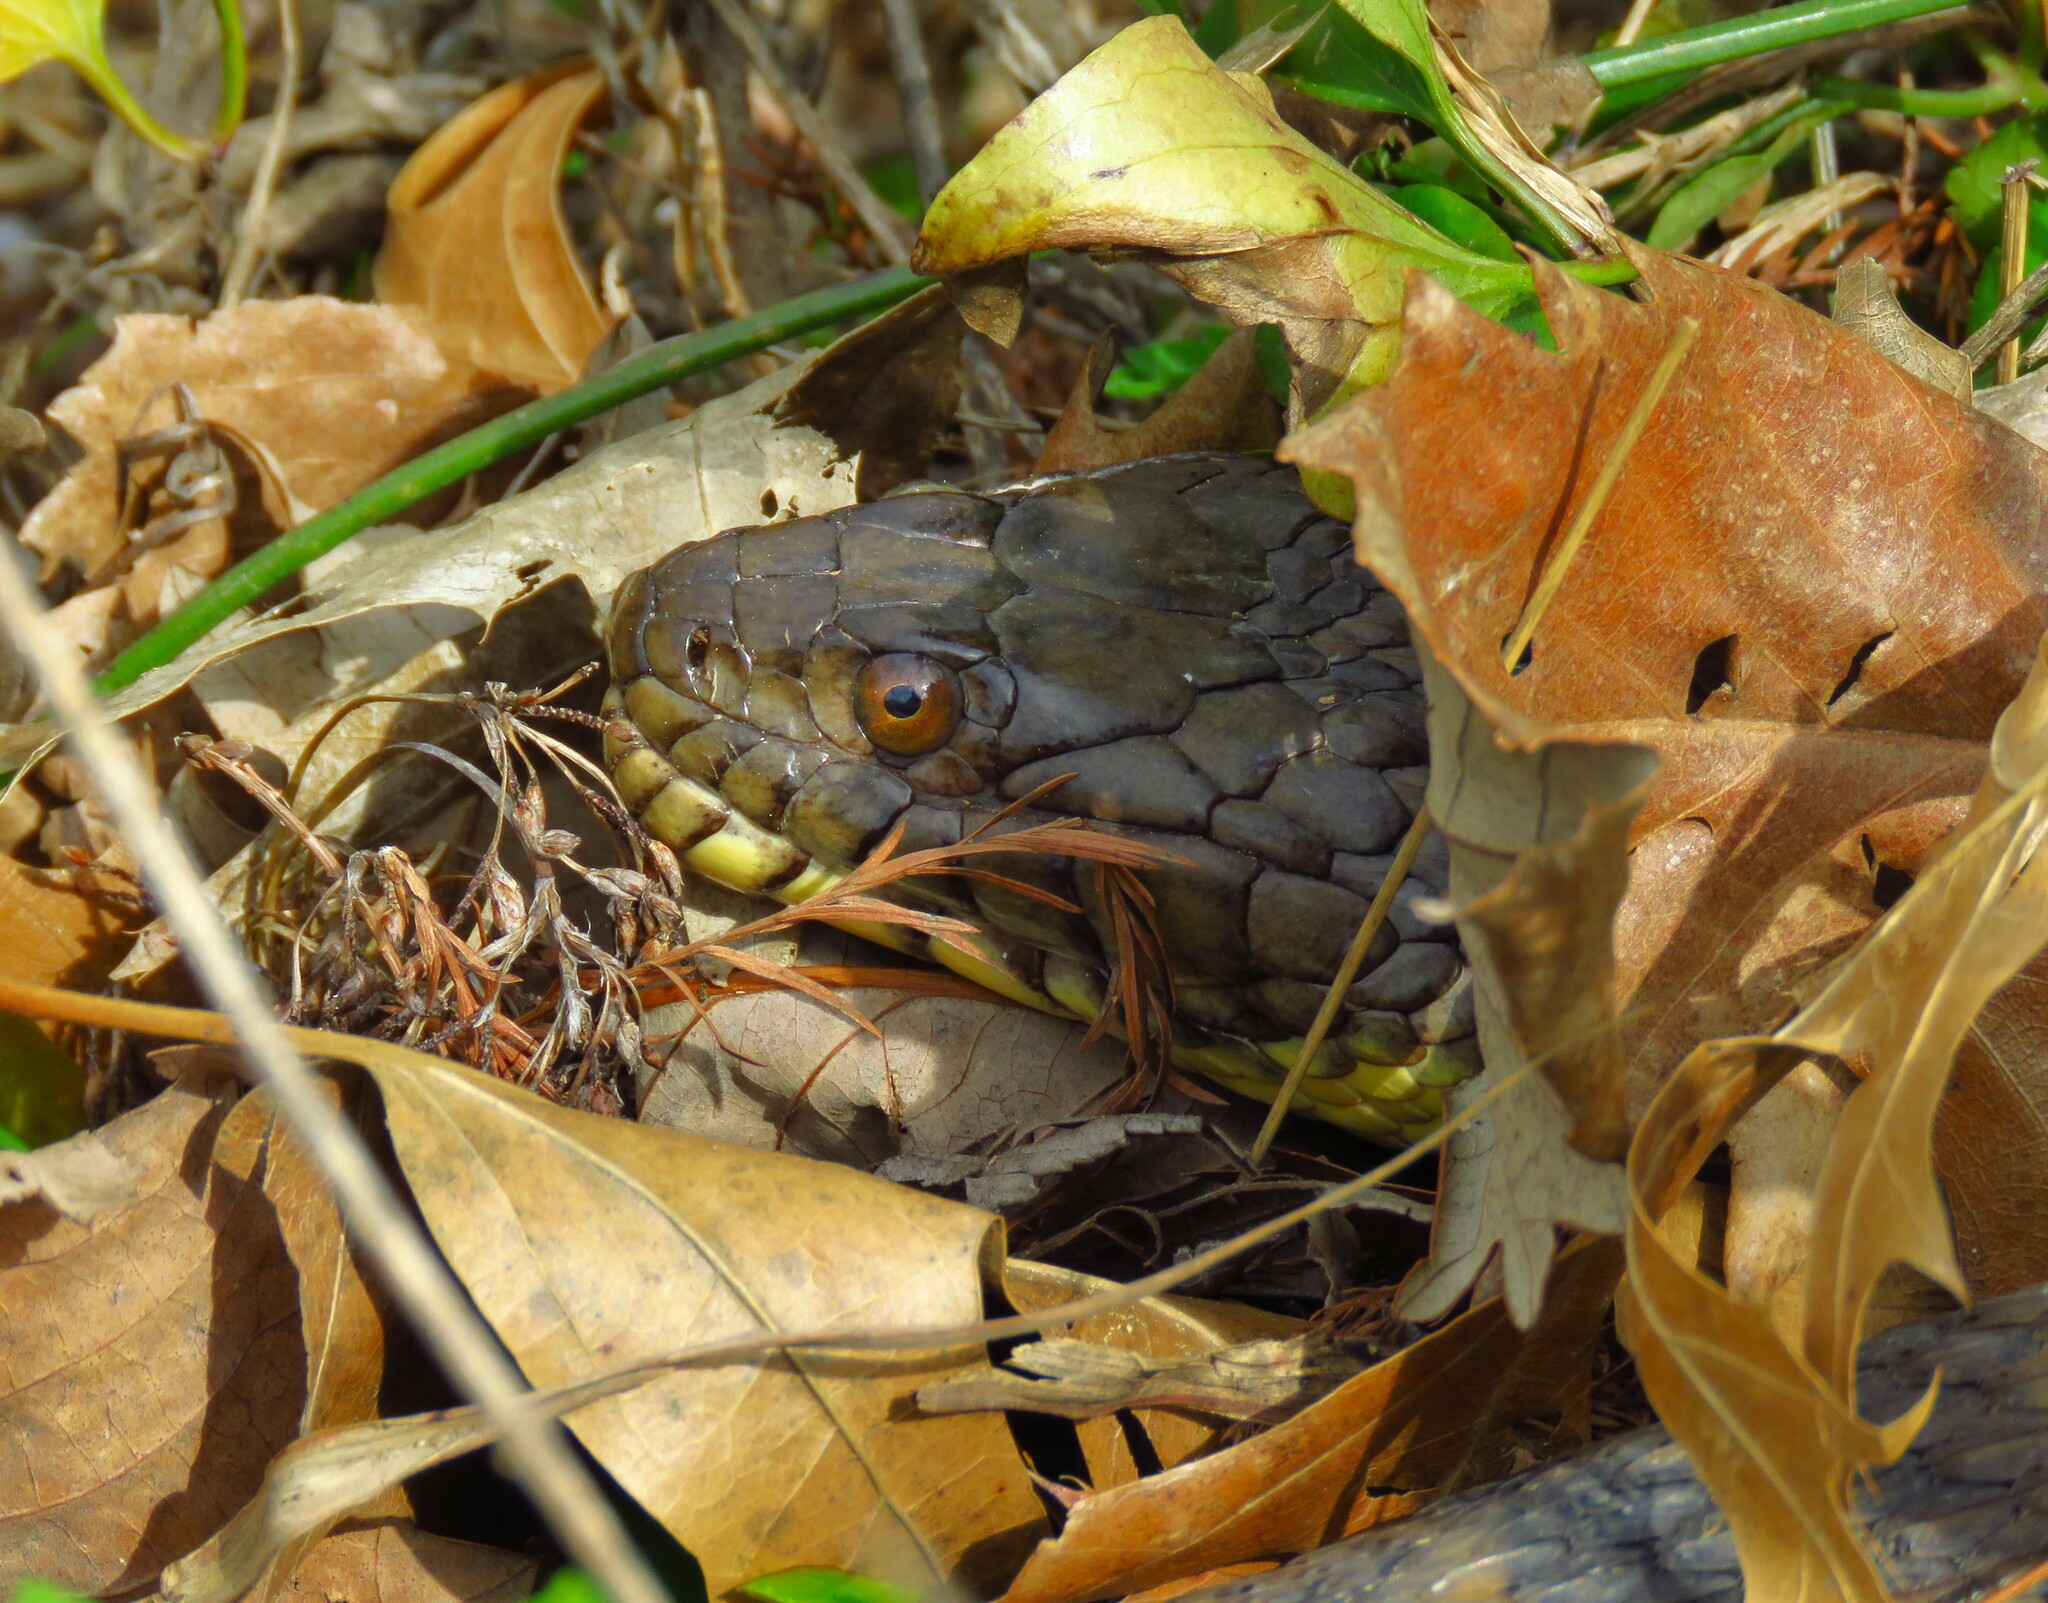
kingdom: Animalia
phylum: Chordata
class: Squamata
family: Colubridae
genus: Nerodia
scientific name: Nerodia rhombifer
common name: Diamondback water snake
